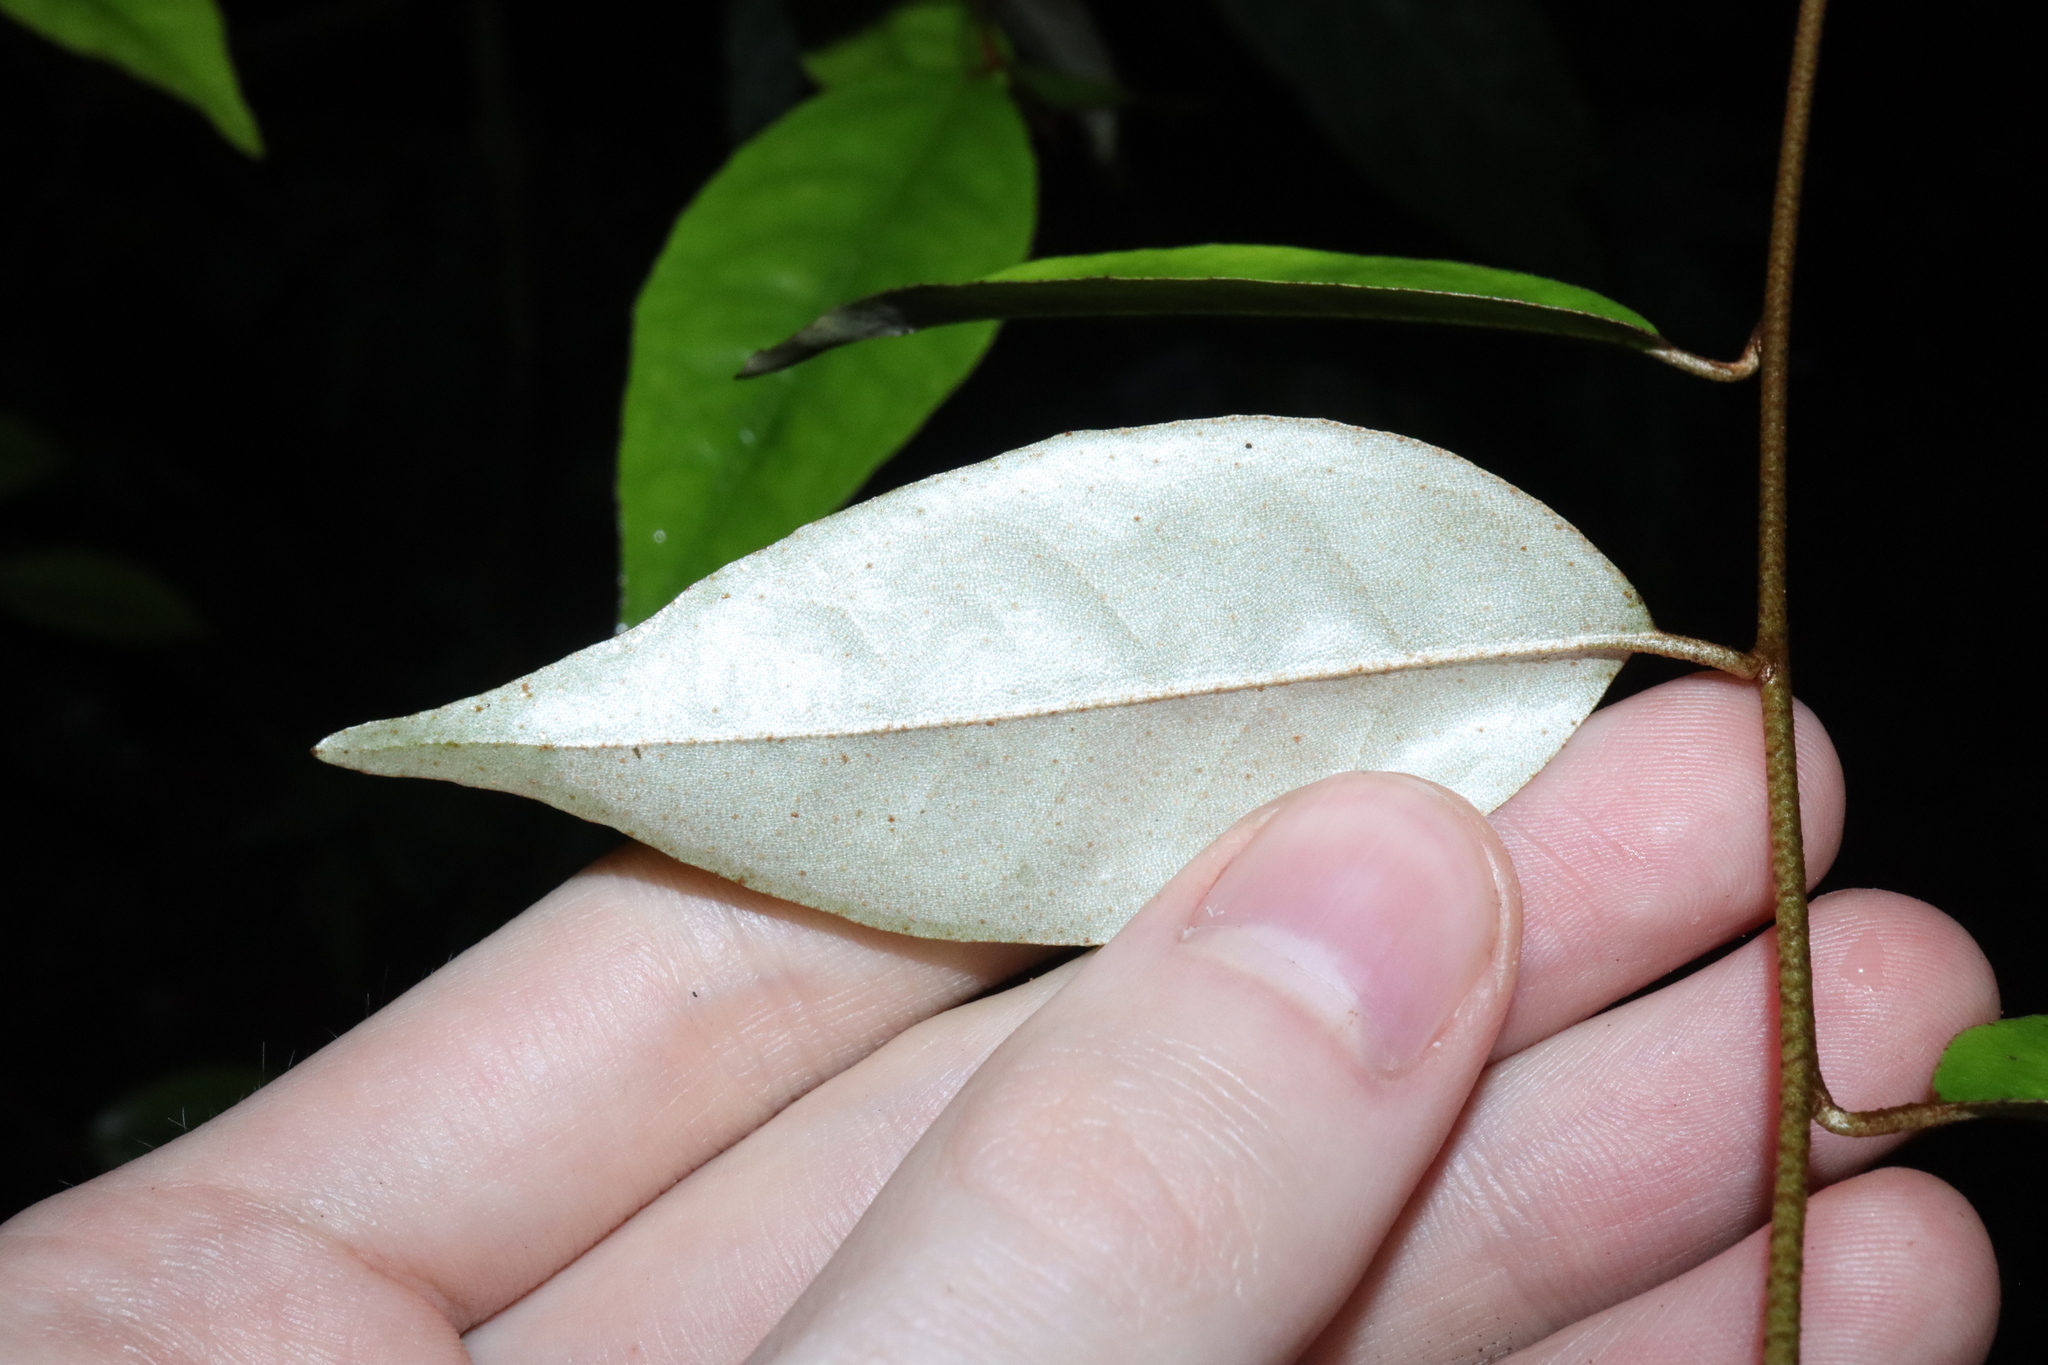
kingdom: Plantae
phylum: Tracheophyta
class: Magnoliopsida
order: Rosales
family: Elaeagnaceae
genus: Elaeagnus
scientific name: Elaeagnus triflora
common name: Millaa millaa-vine
